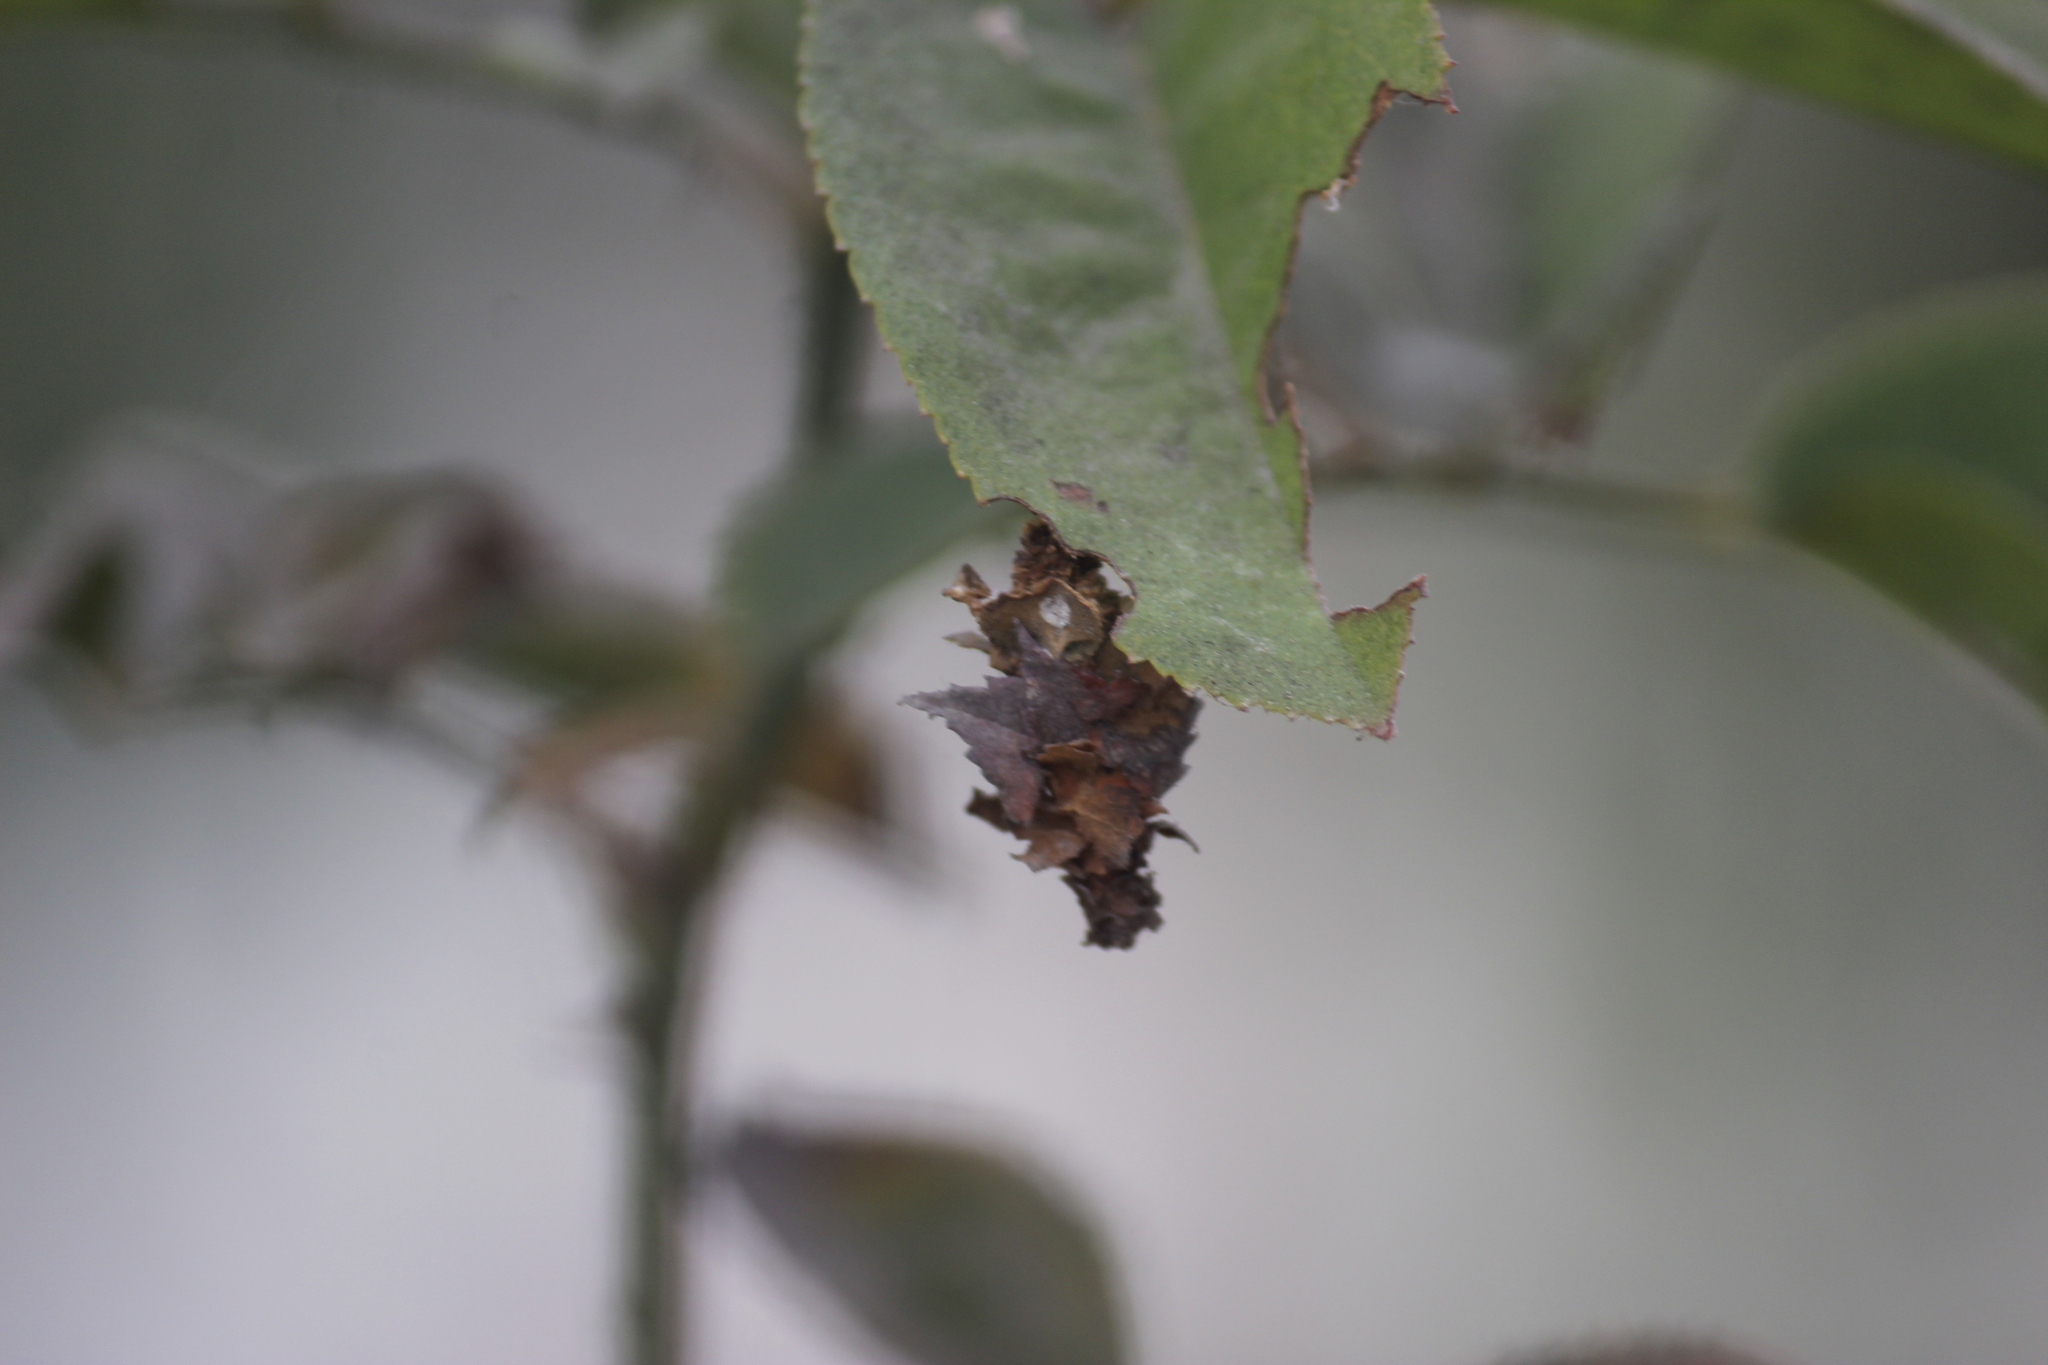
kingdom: Animalia
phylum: Arthropoda
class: Insecta
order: Lepidoptera
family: Psychidae
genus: Oiketicus
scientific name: Oiketicus kirbyi
